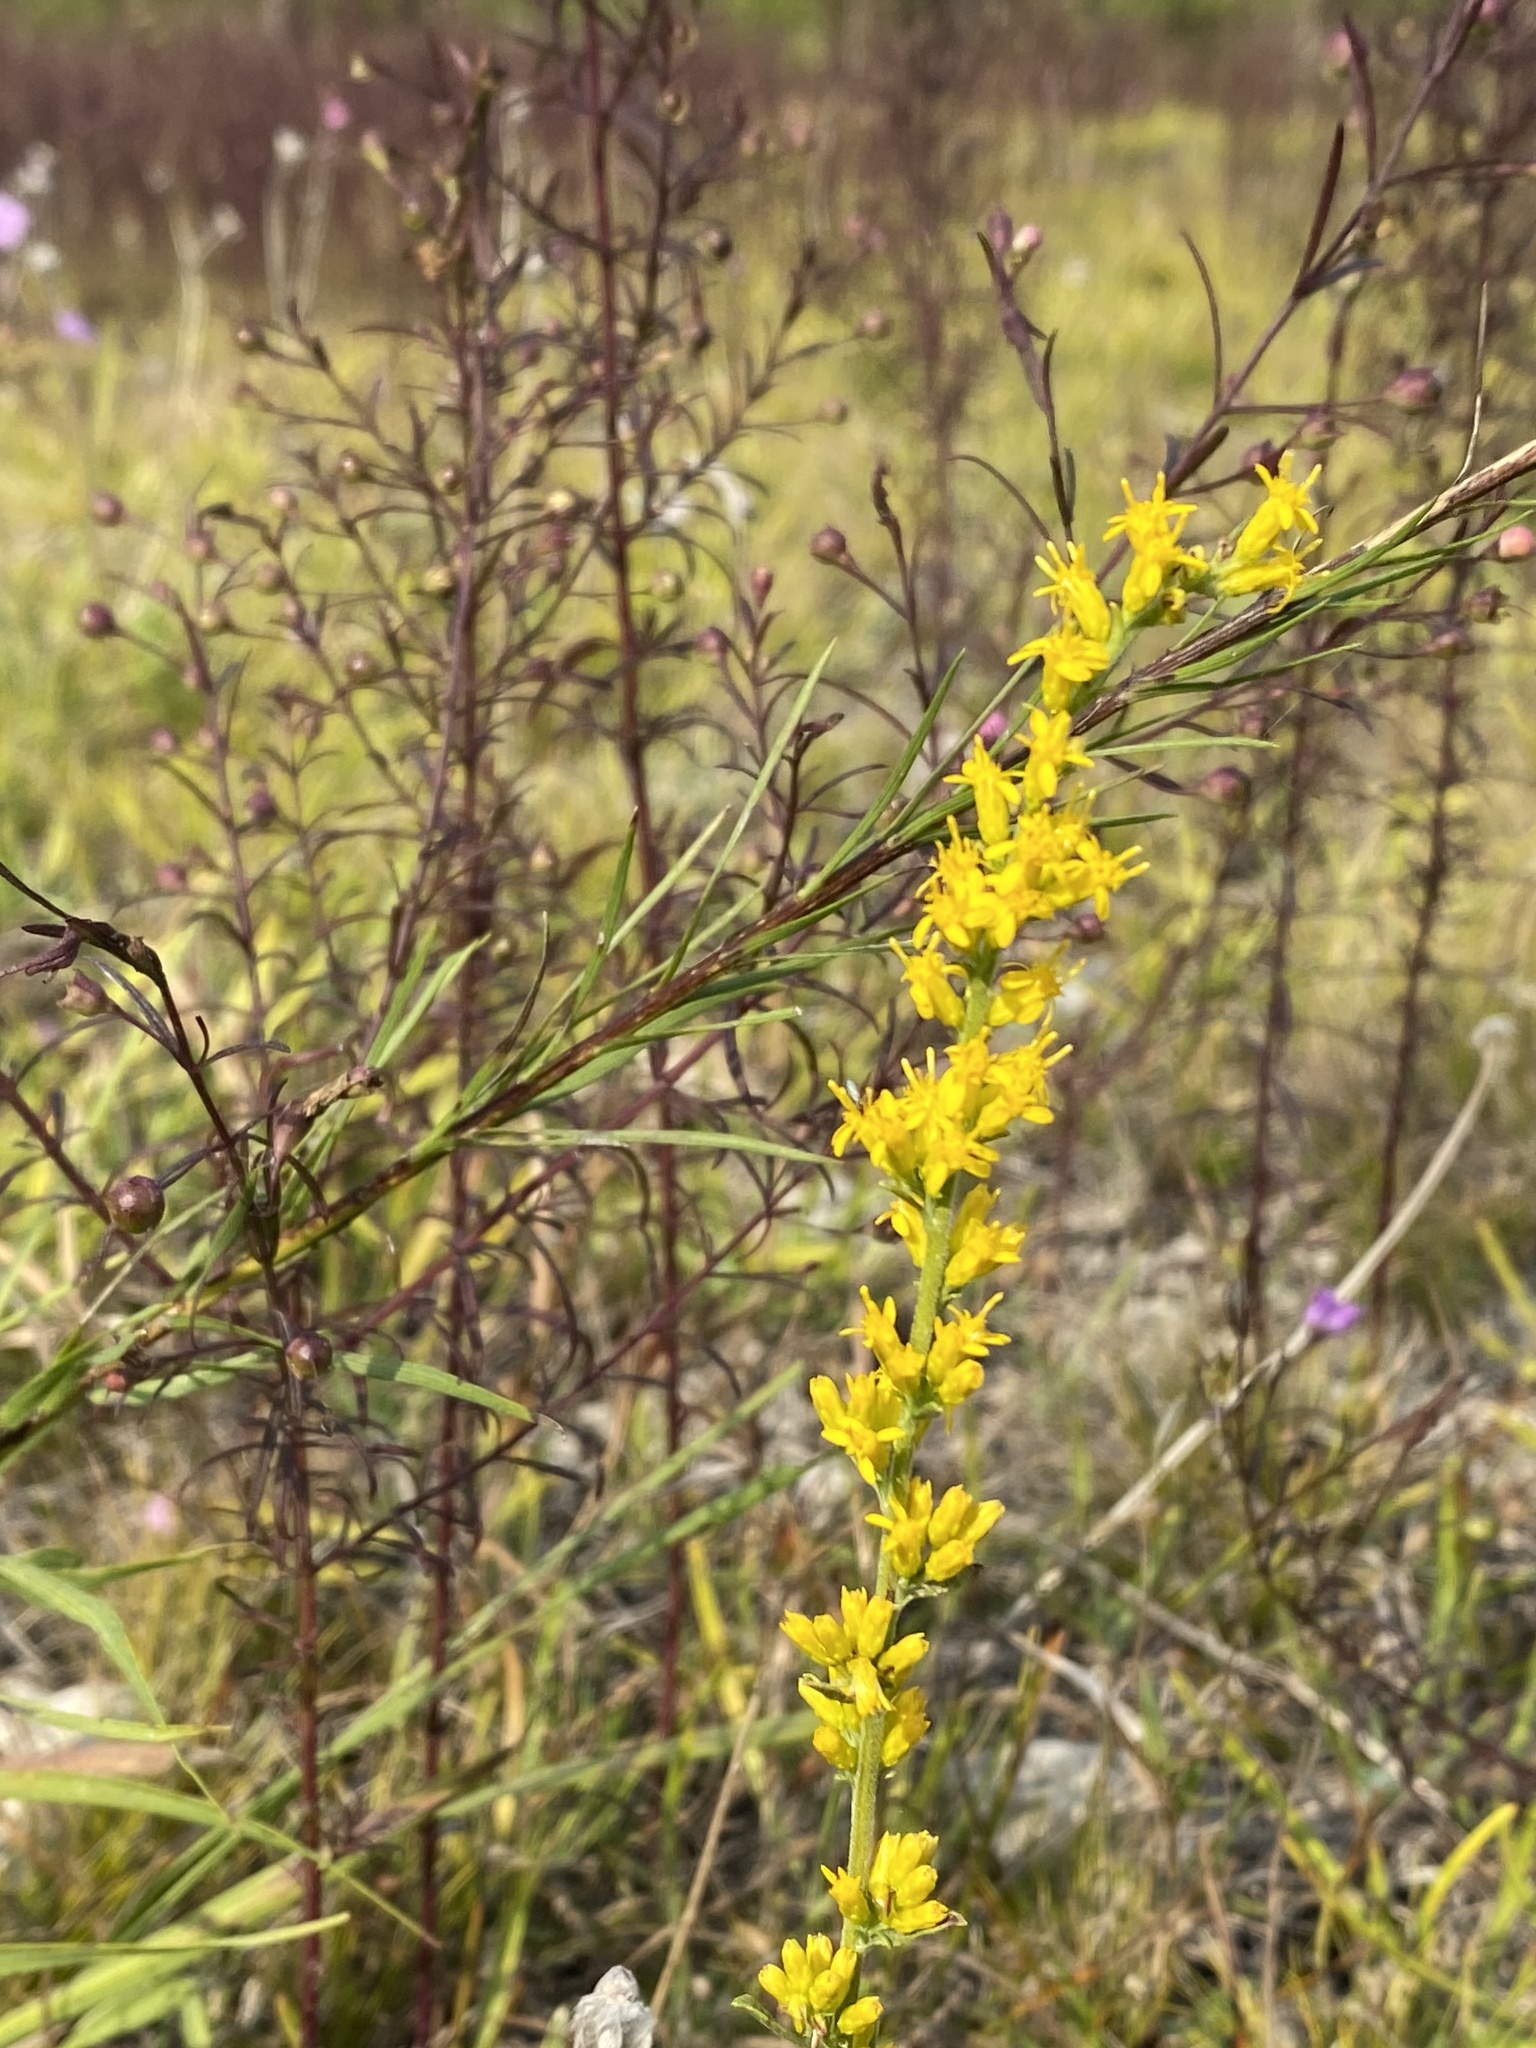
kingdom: Plantae
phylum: Tracheophyta
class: Magnoliopsida
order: Asterales
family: Asteraceae
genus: Solidago
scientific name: Solidago nemoralis
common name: Grey goldenrod
